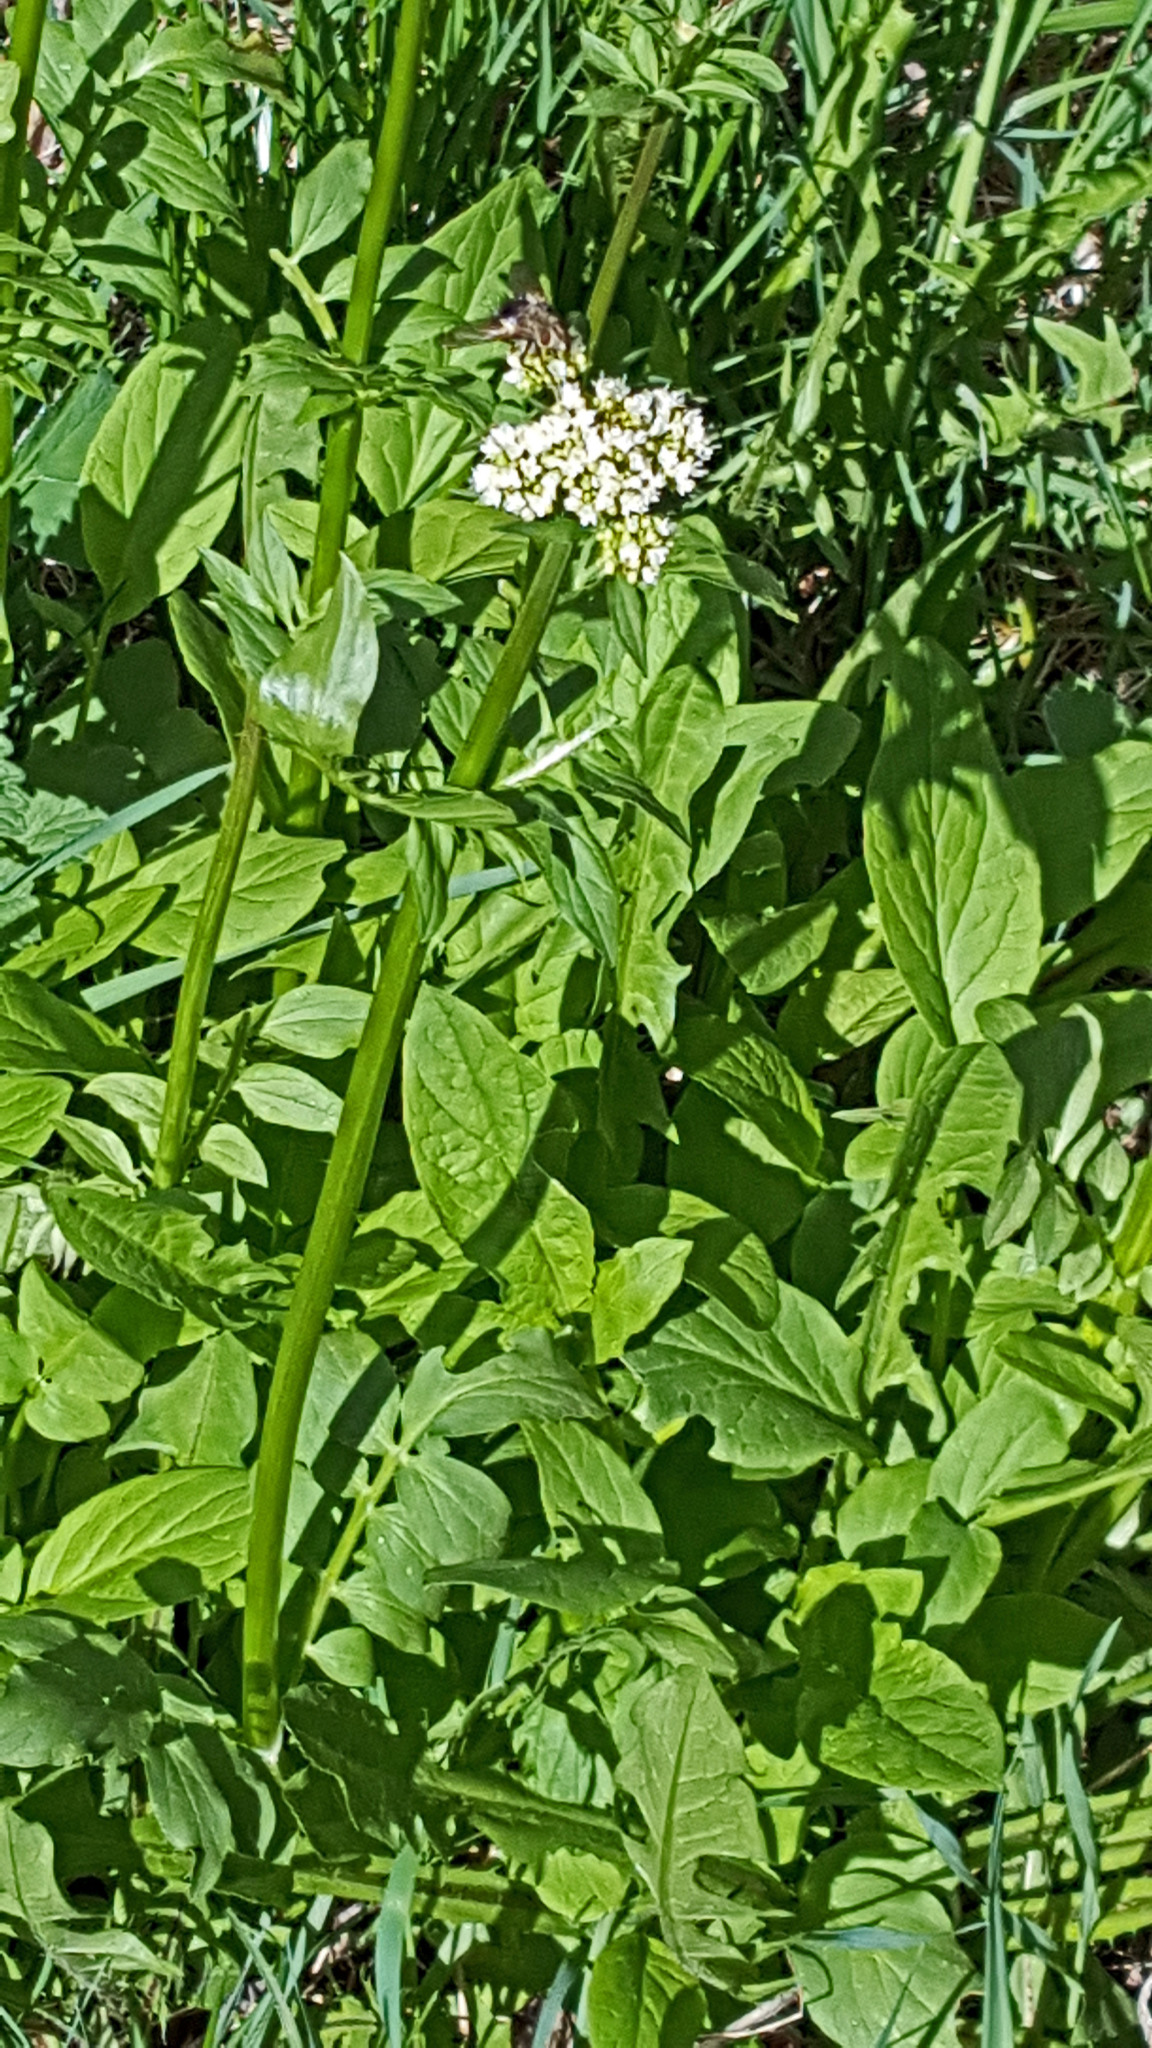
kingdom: Plantae
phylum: Tracheophyta
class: Magnoliopsida
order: Dipsacales
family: Caprifoliaceae
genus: Valeriana
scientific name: Valeriana occidentalis
